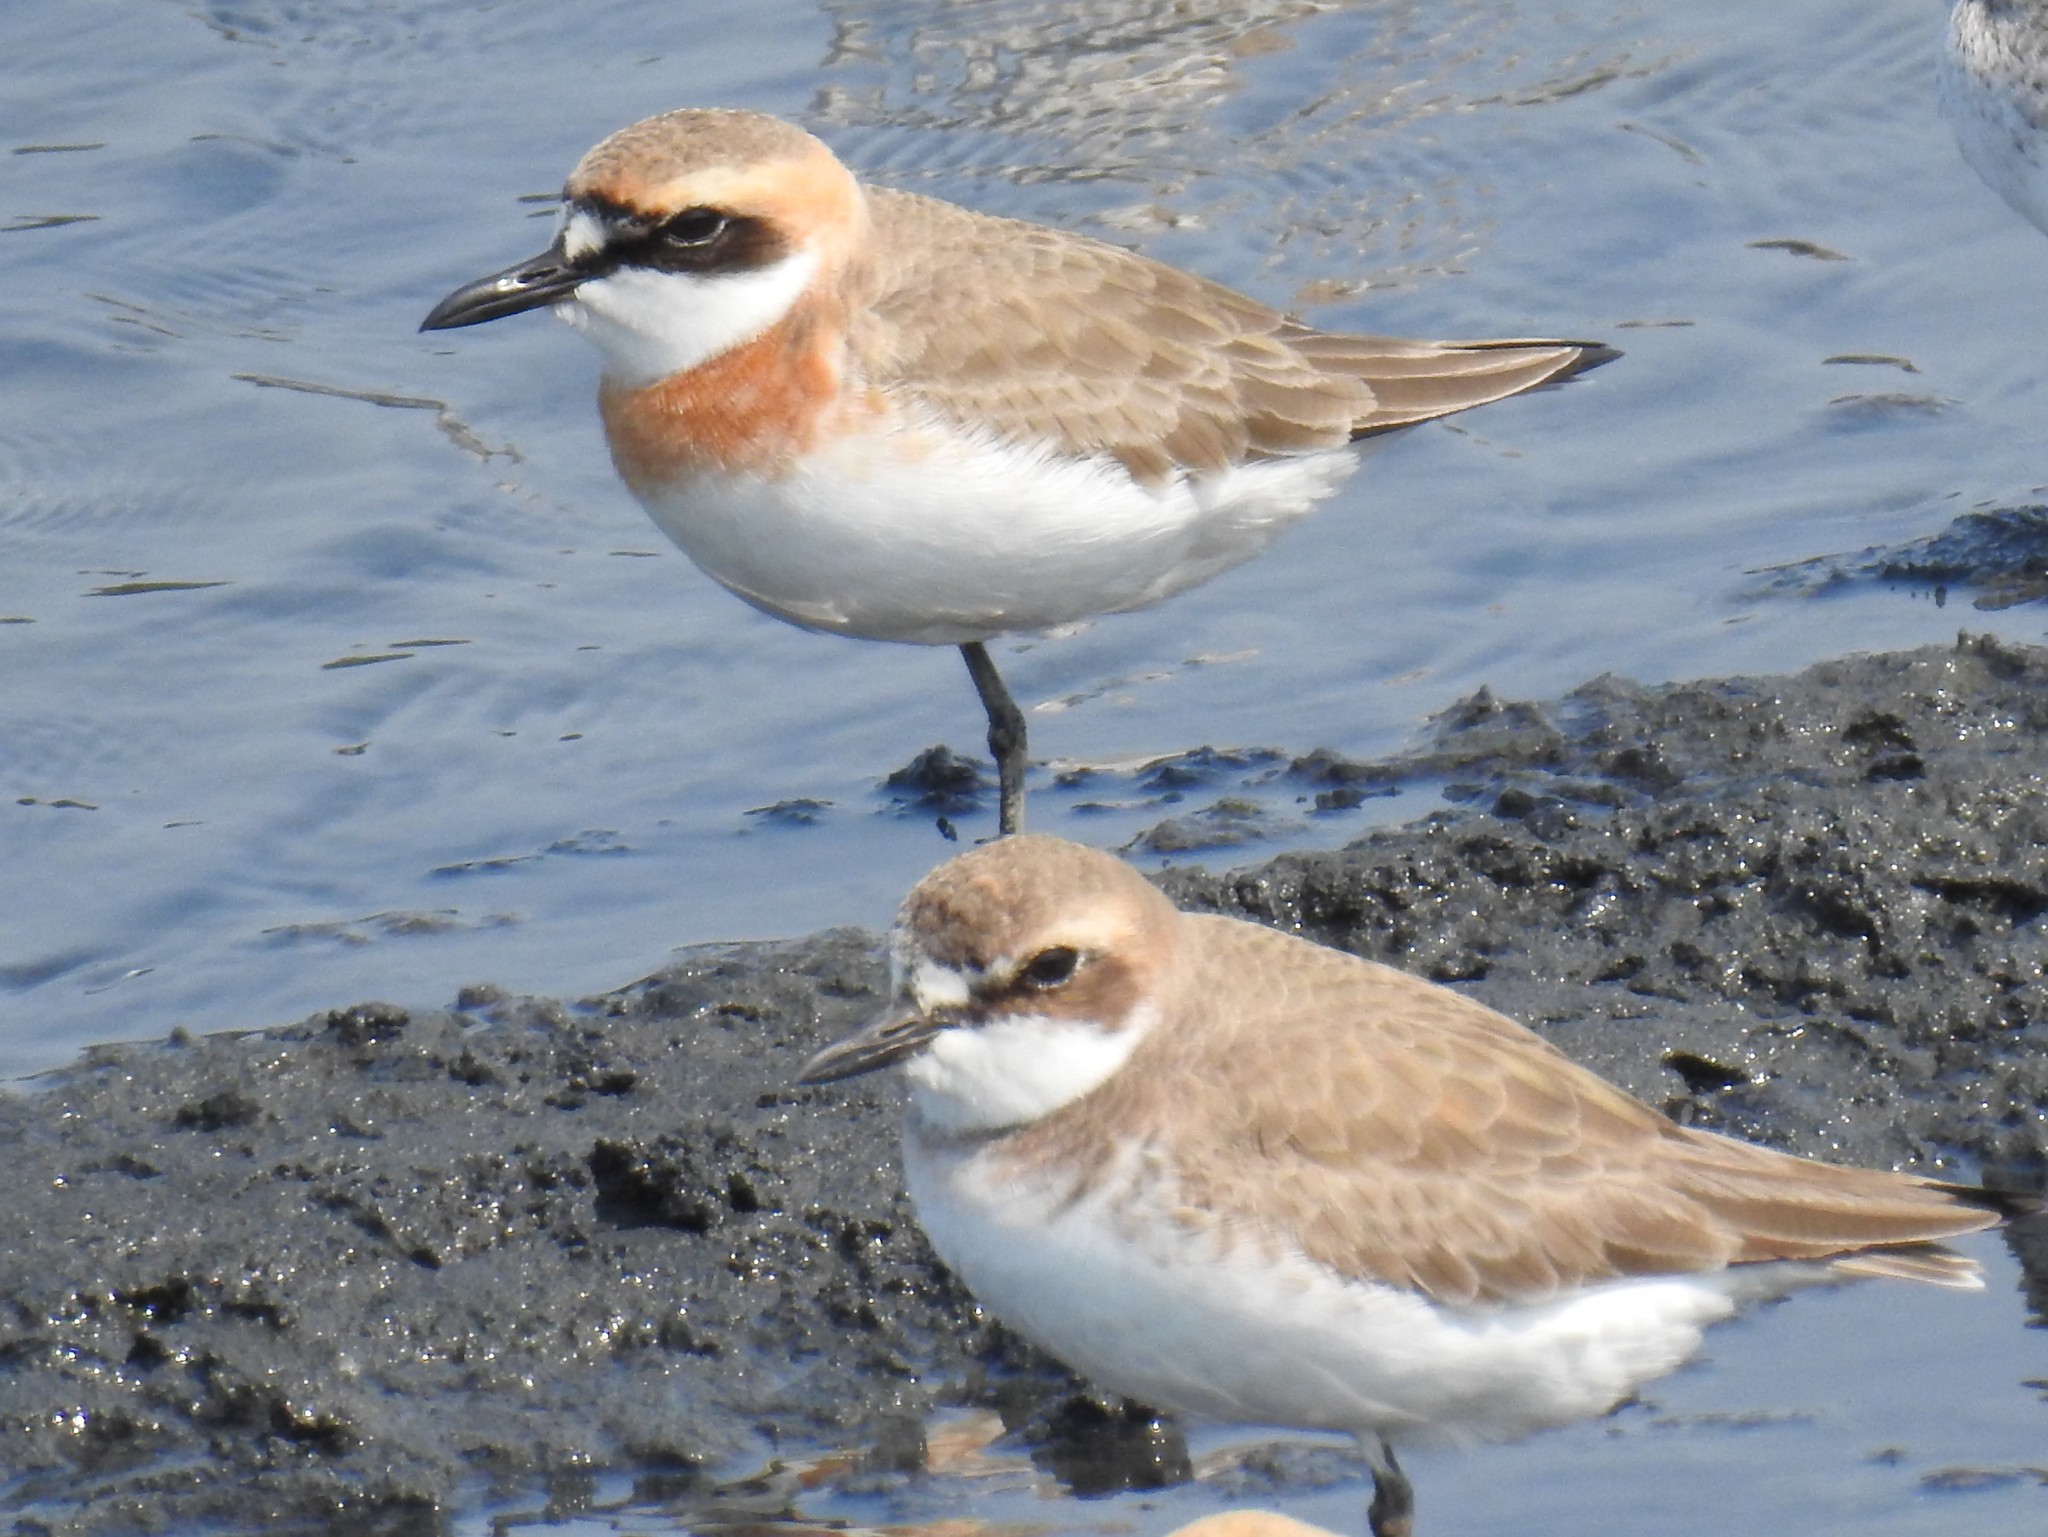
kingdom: Animalia
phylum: Chordata
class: Aves
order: Charadriiformes
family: Charadriidae
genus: Charadrius
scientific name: Charadrius leschenaultii
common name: Greater sand plover
